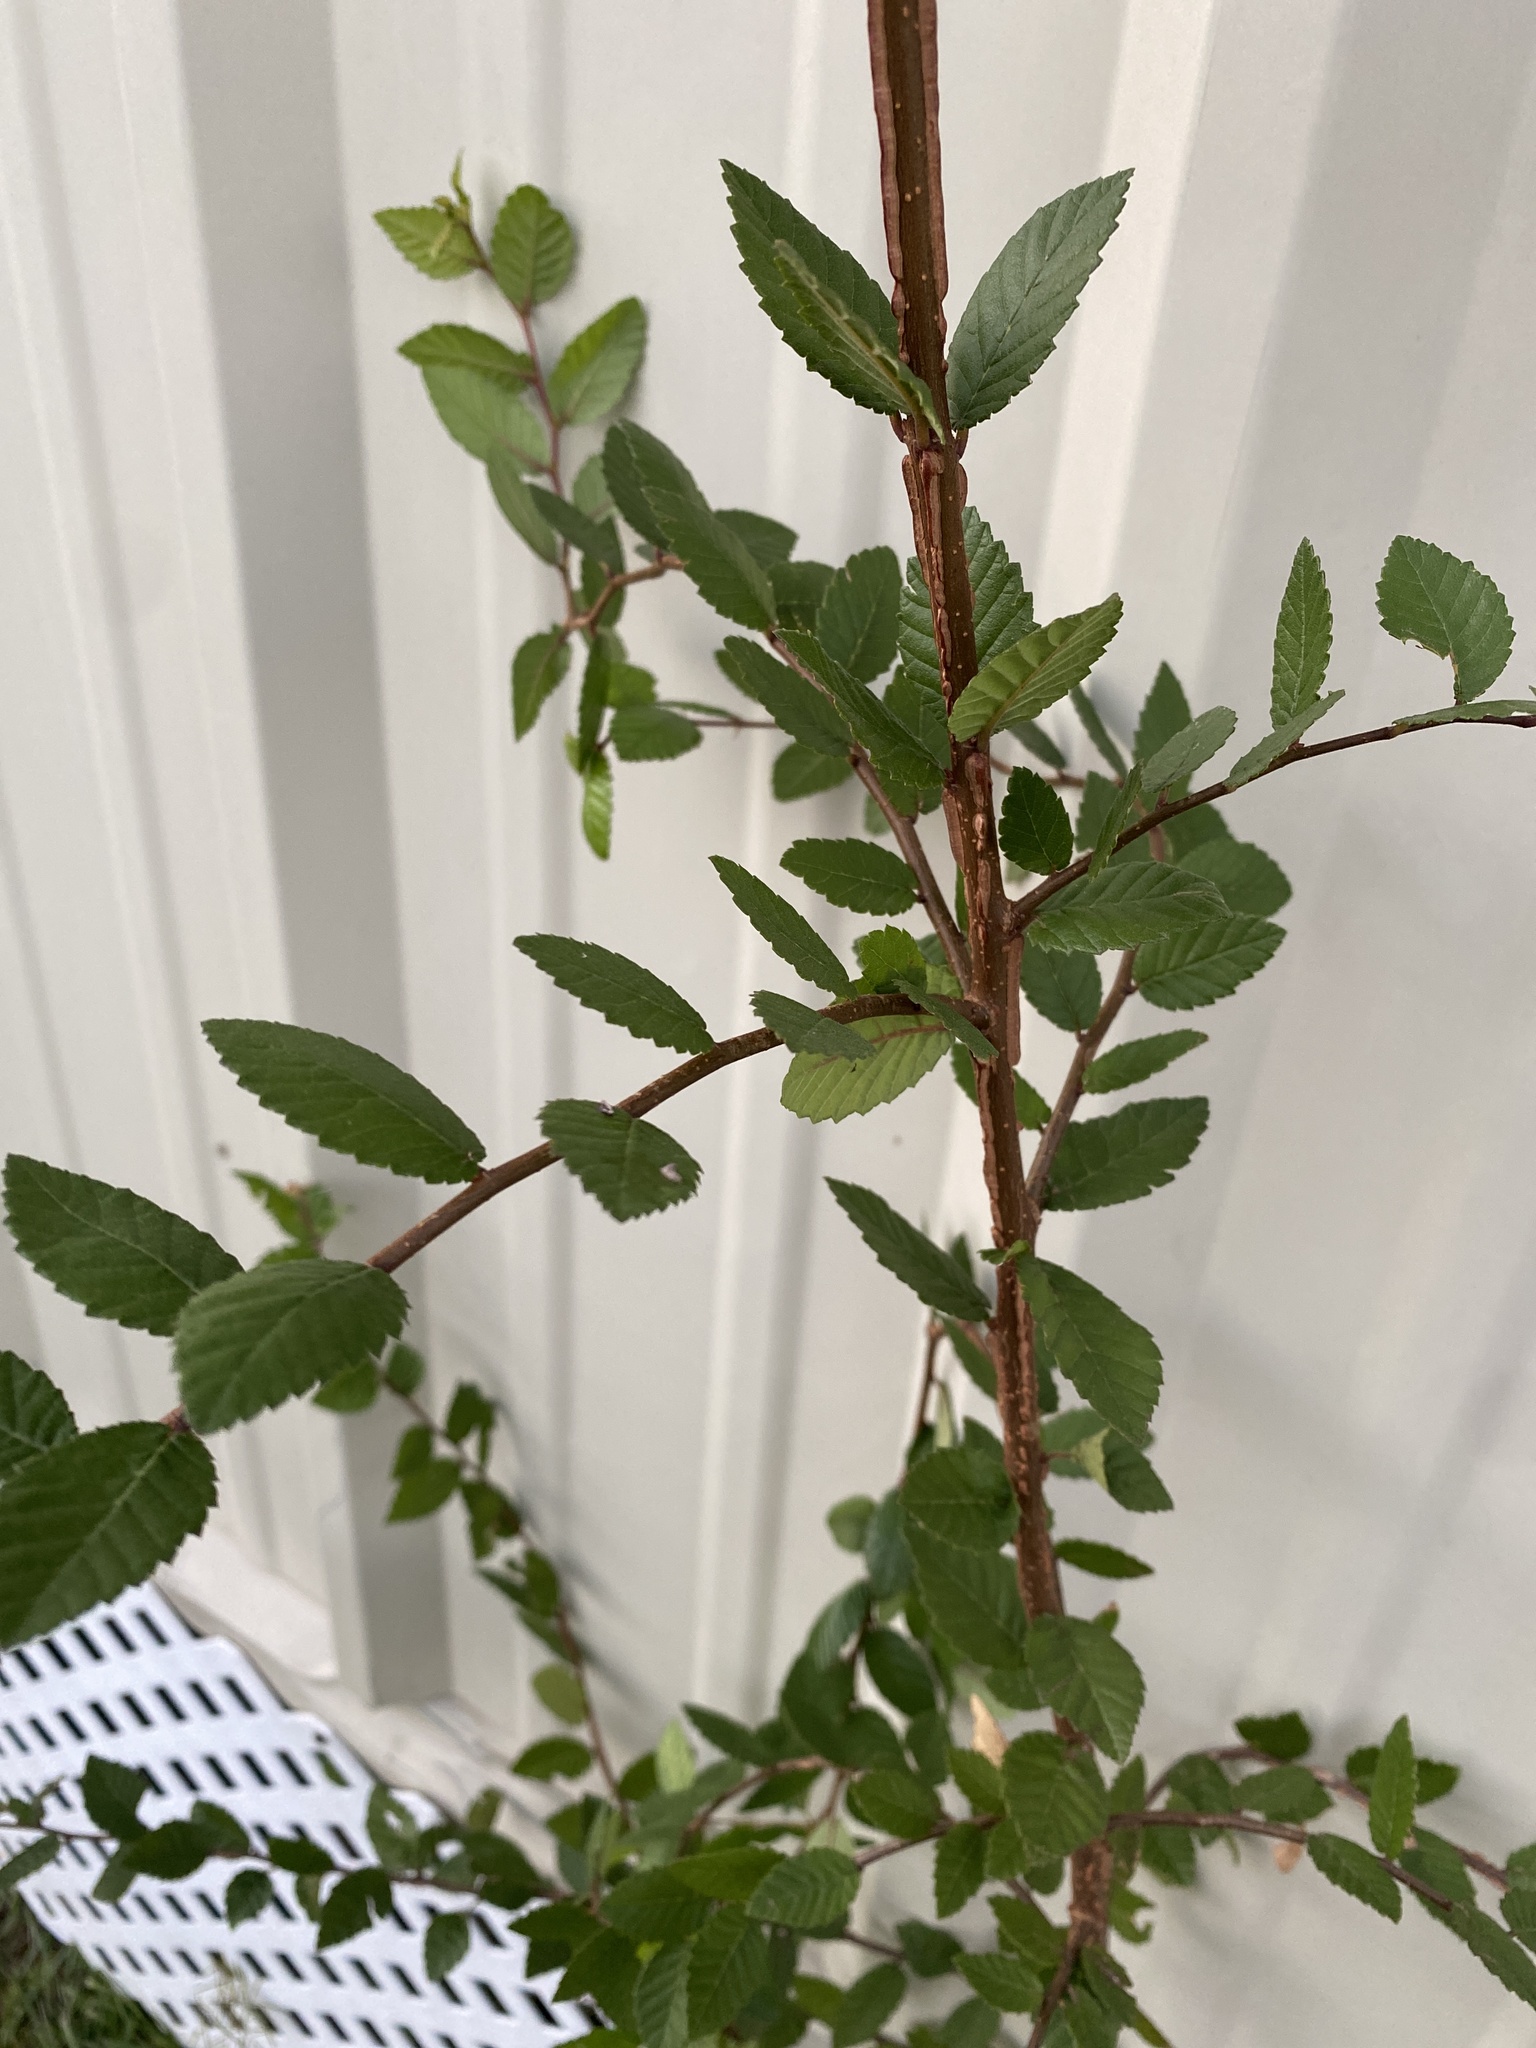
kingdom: Plantae
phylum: Tracheophyta
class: Magnoliopsida
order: Rosales
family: Ulmaceae
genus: Ulmus
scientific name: Ulmus alata
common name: Winged elm
